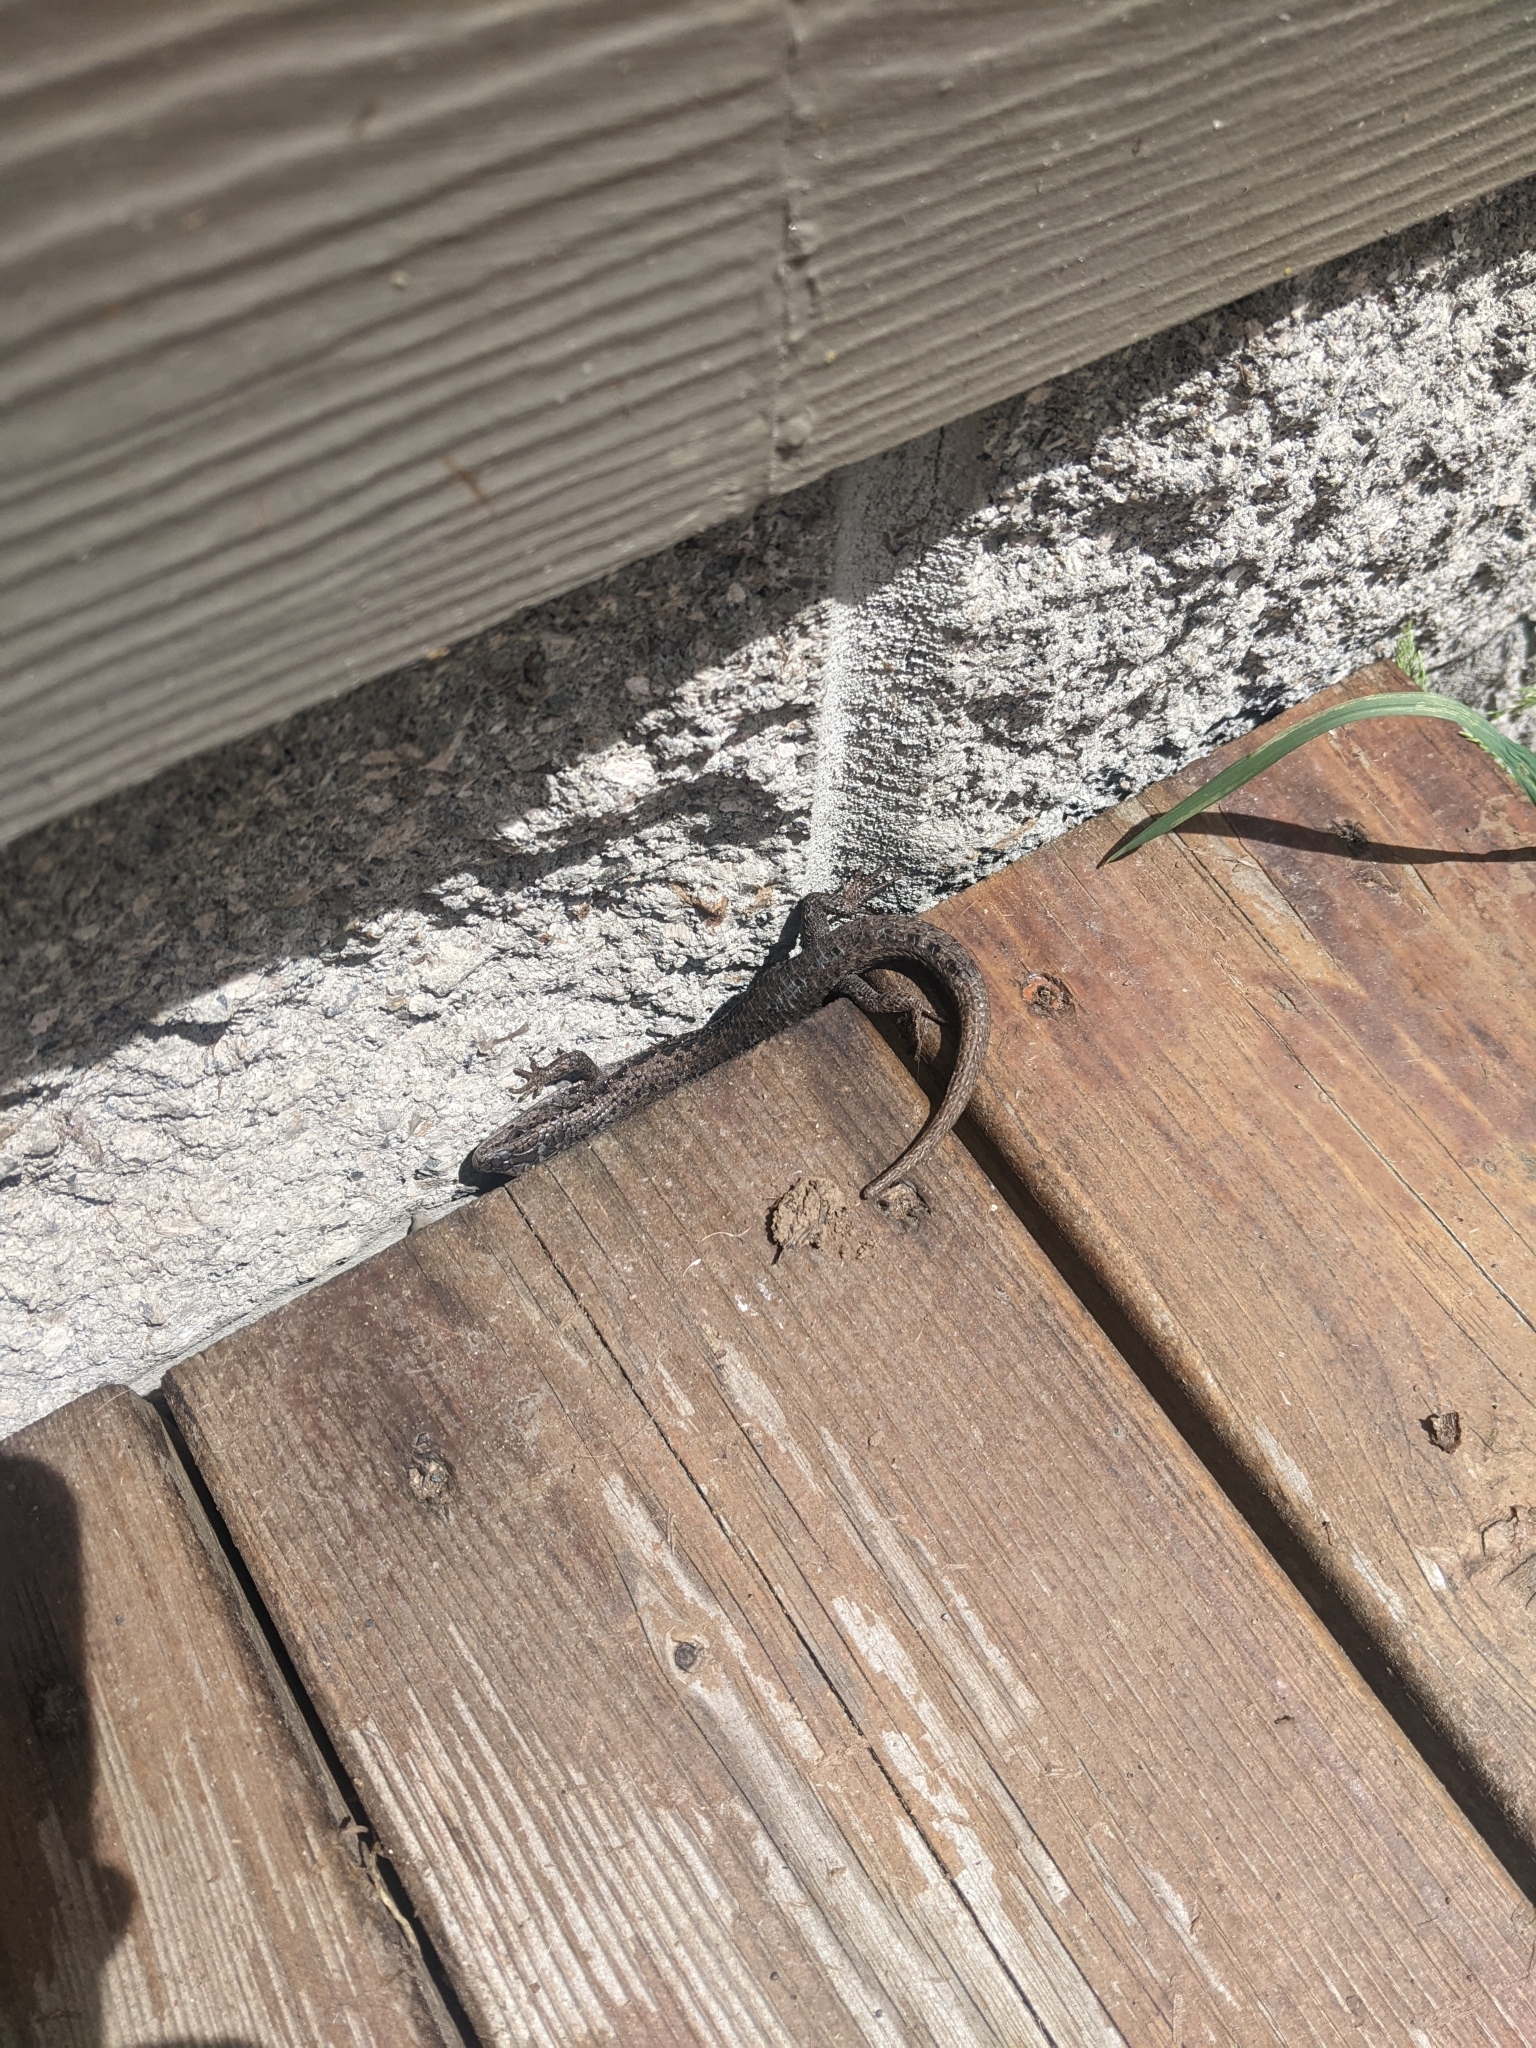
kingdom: Animalia
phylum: Chordata
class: Squamata
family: Anguidae
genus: Elgaria
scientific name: Elgaria coerulea
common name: Northern alligator lizard
